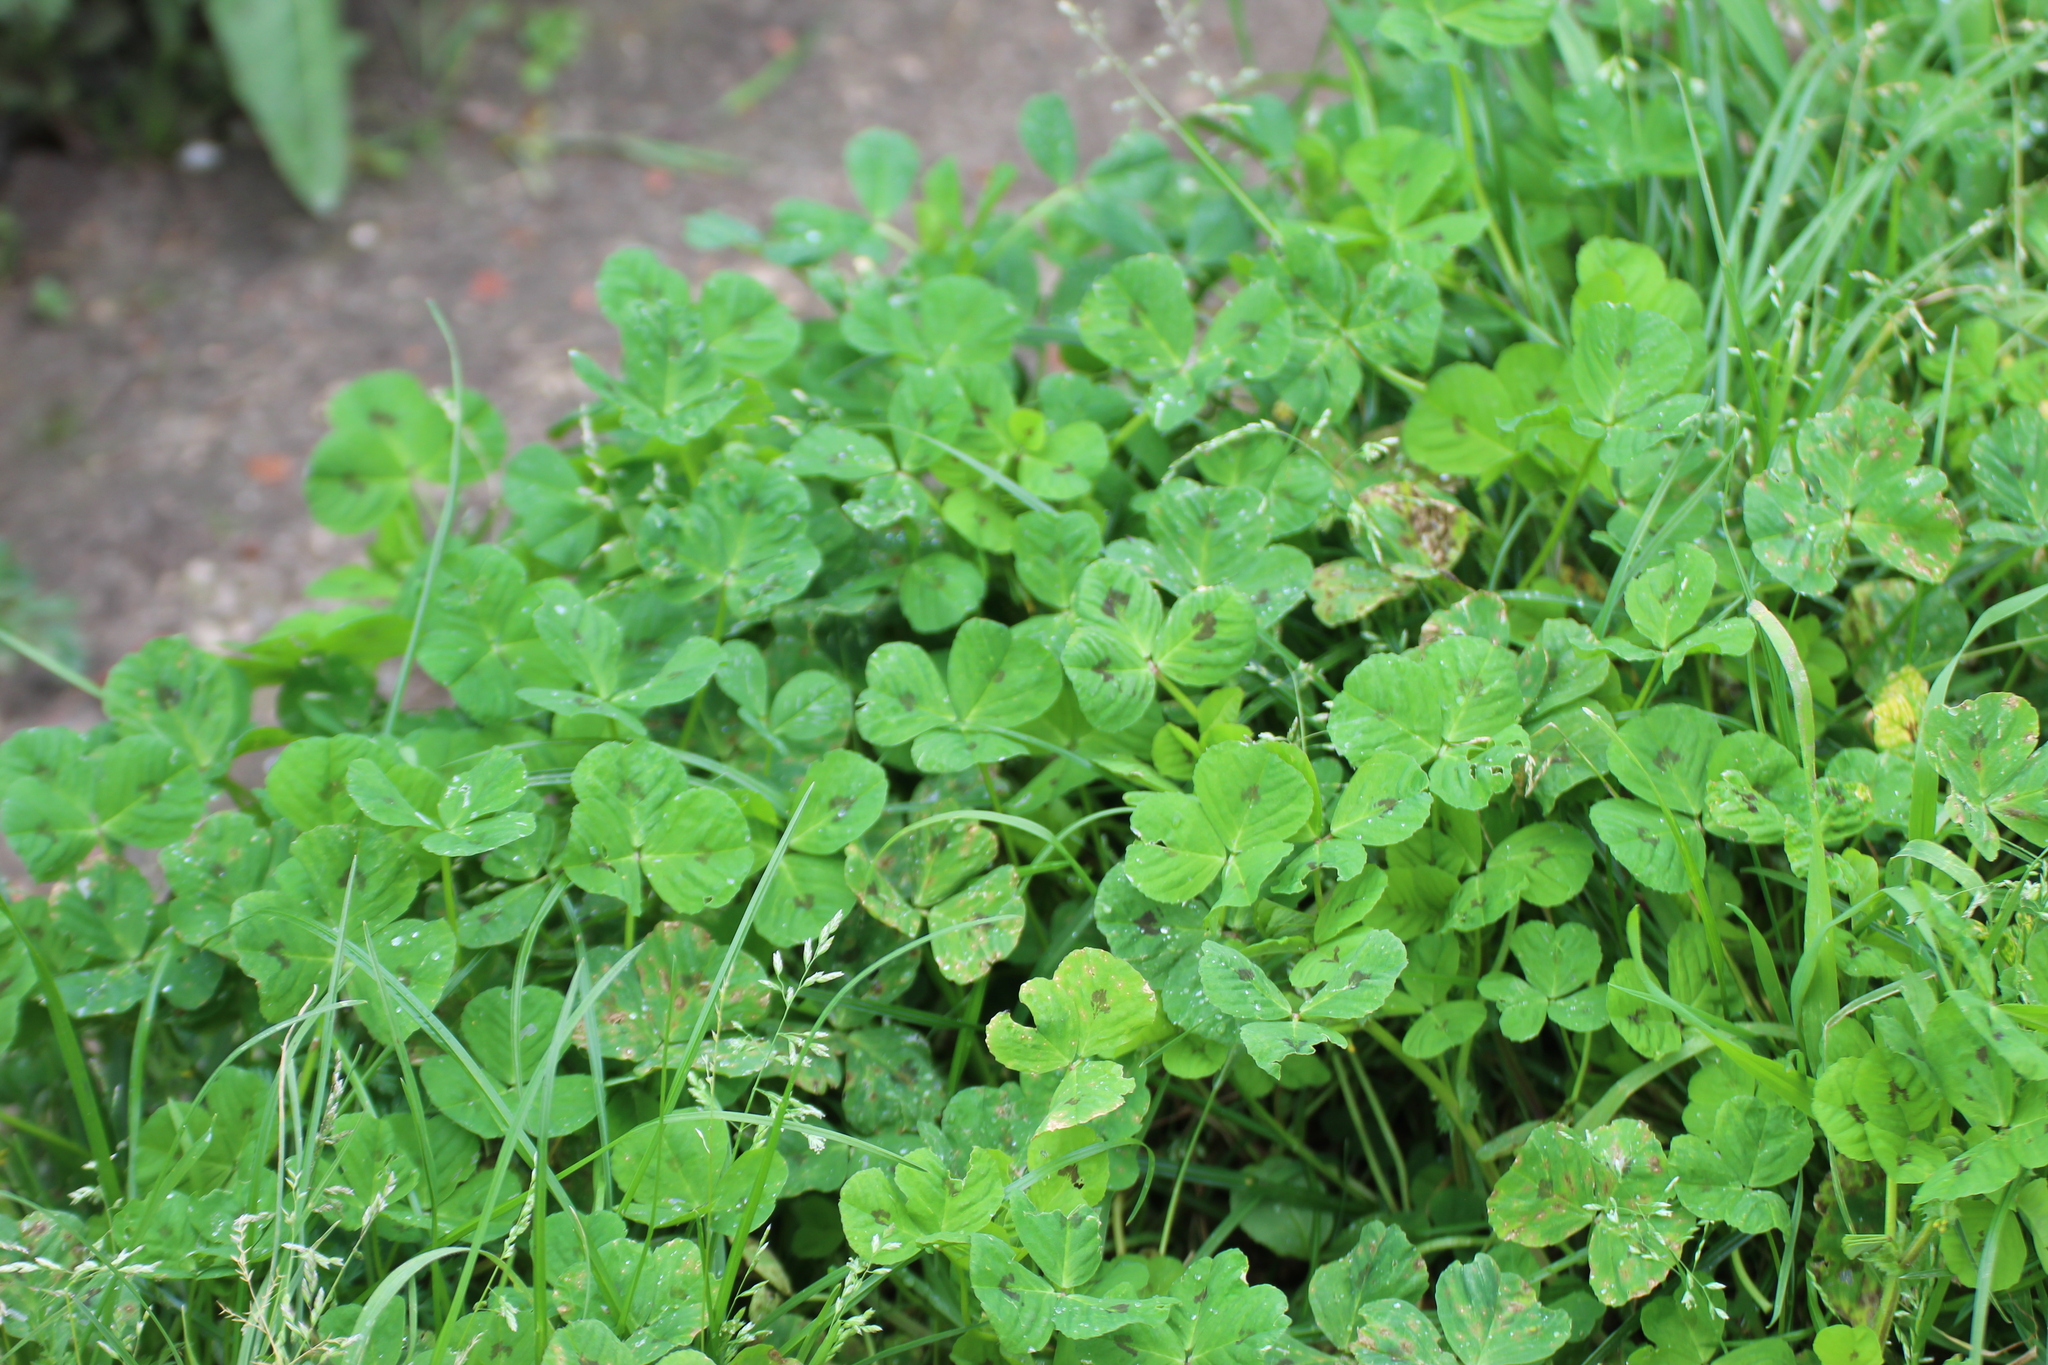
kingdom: Plantae
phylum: Tracheophyta
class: Magnoliopsida
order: Fabales
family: Fabaceae
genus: Medicago
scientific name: Medicago arabica
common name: Spotted medick
